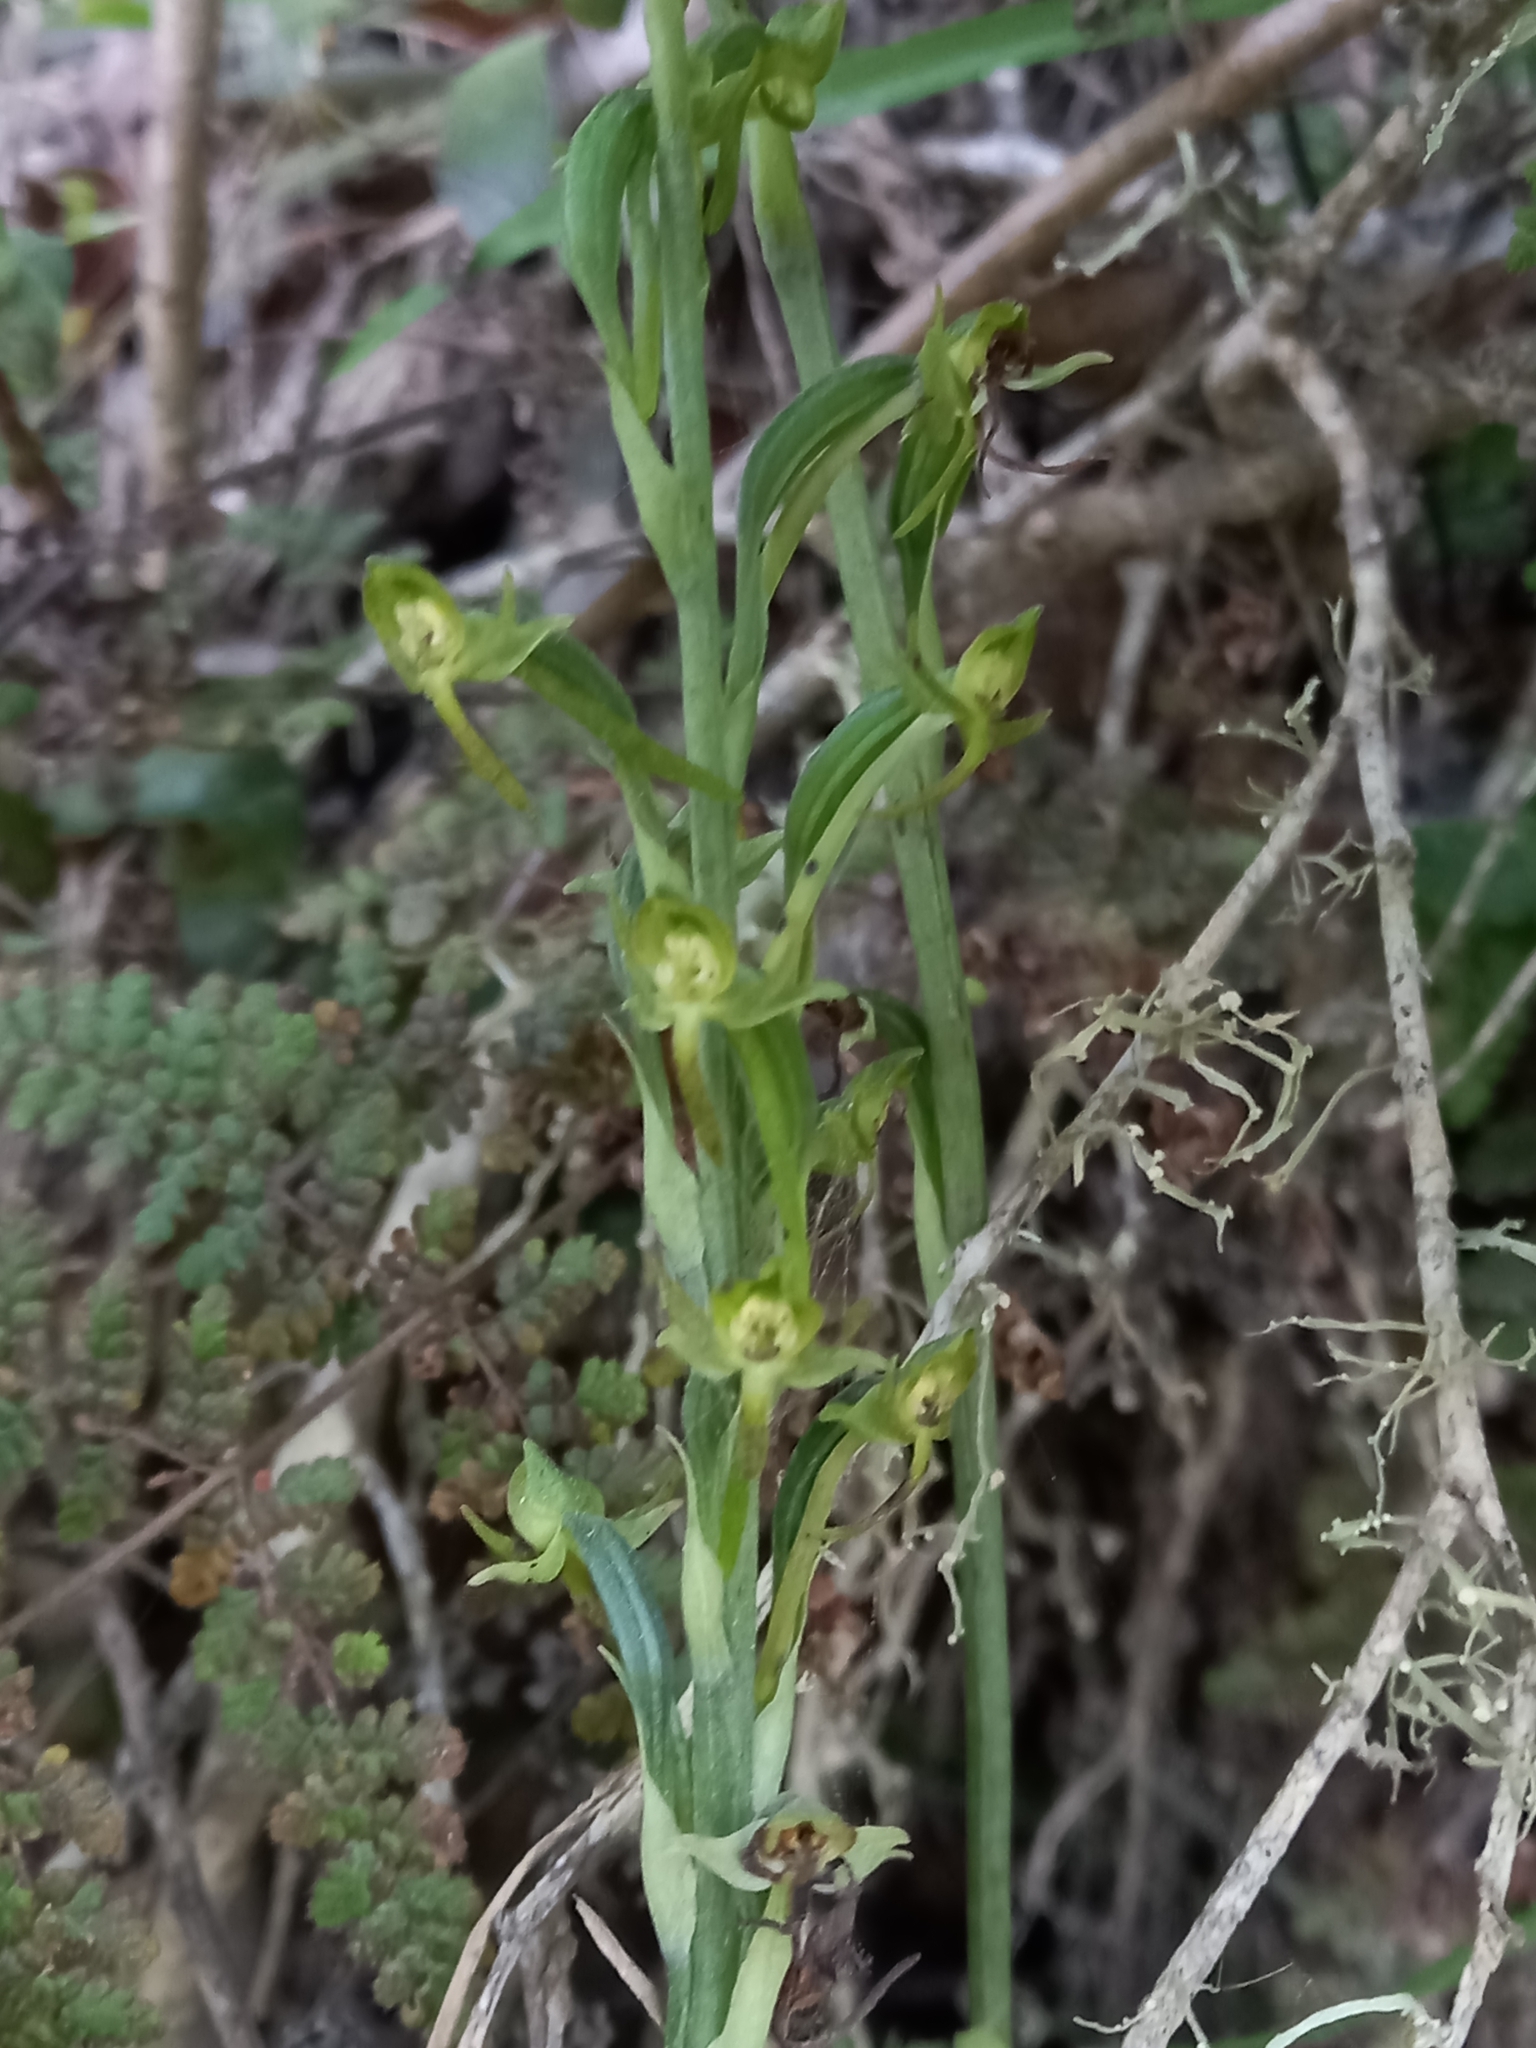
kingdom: Plantae
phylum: Tracheophyta
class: Liliopsida
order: Asparagales
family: Orchidaceae
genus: Habenaria
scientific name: Habenaria arenaria
